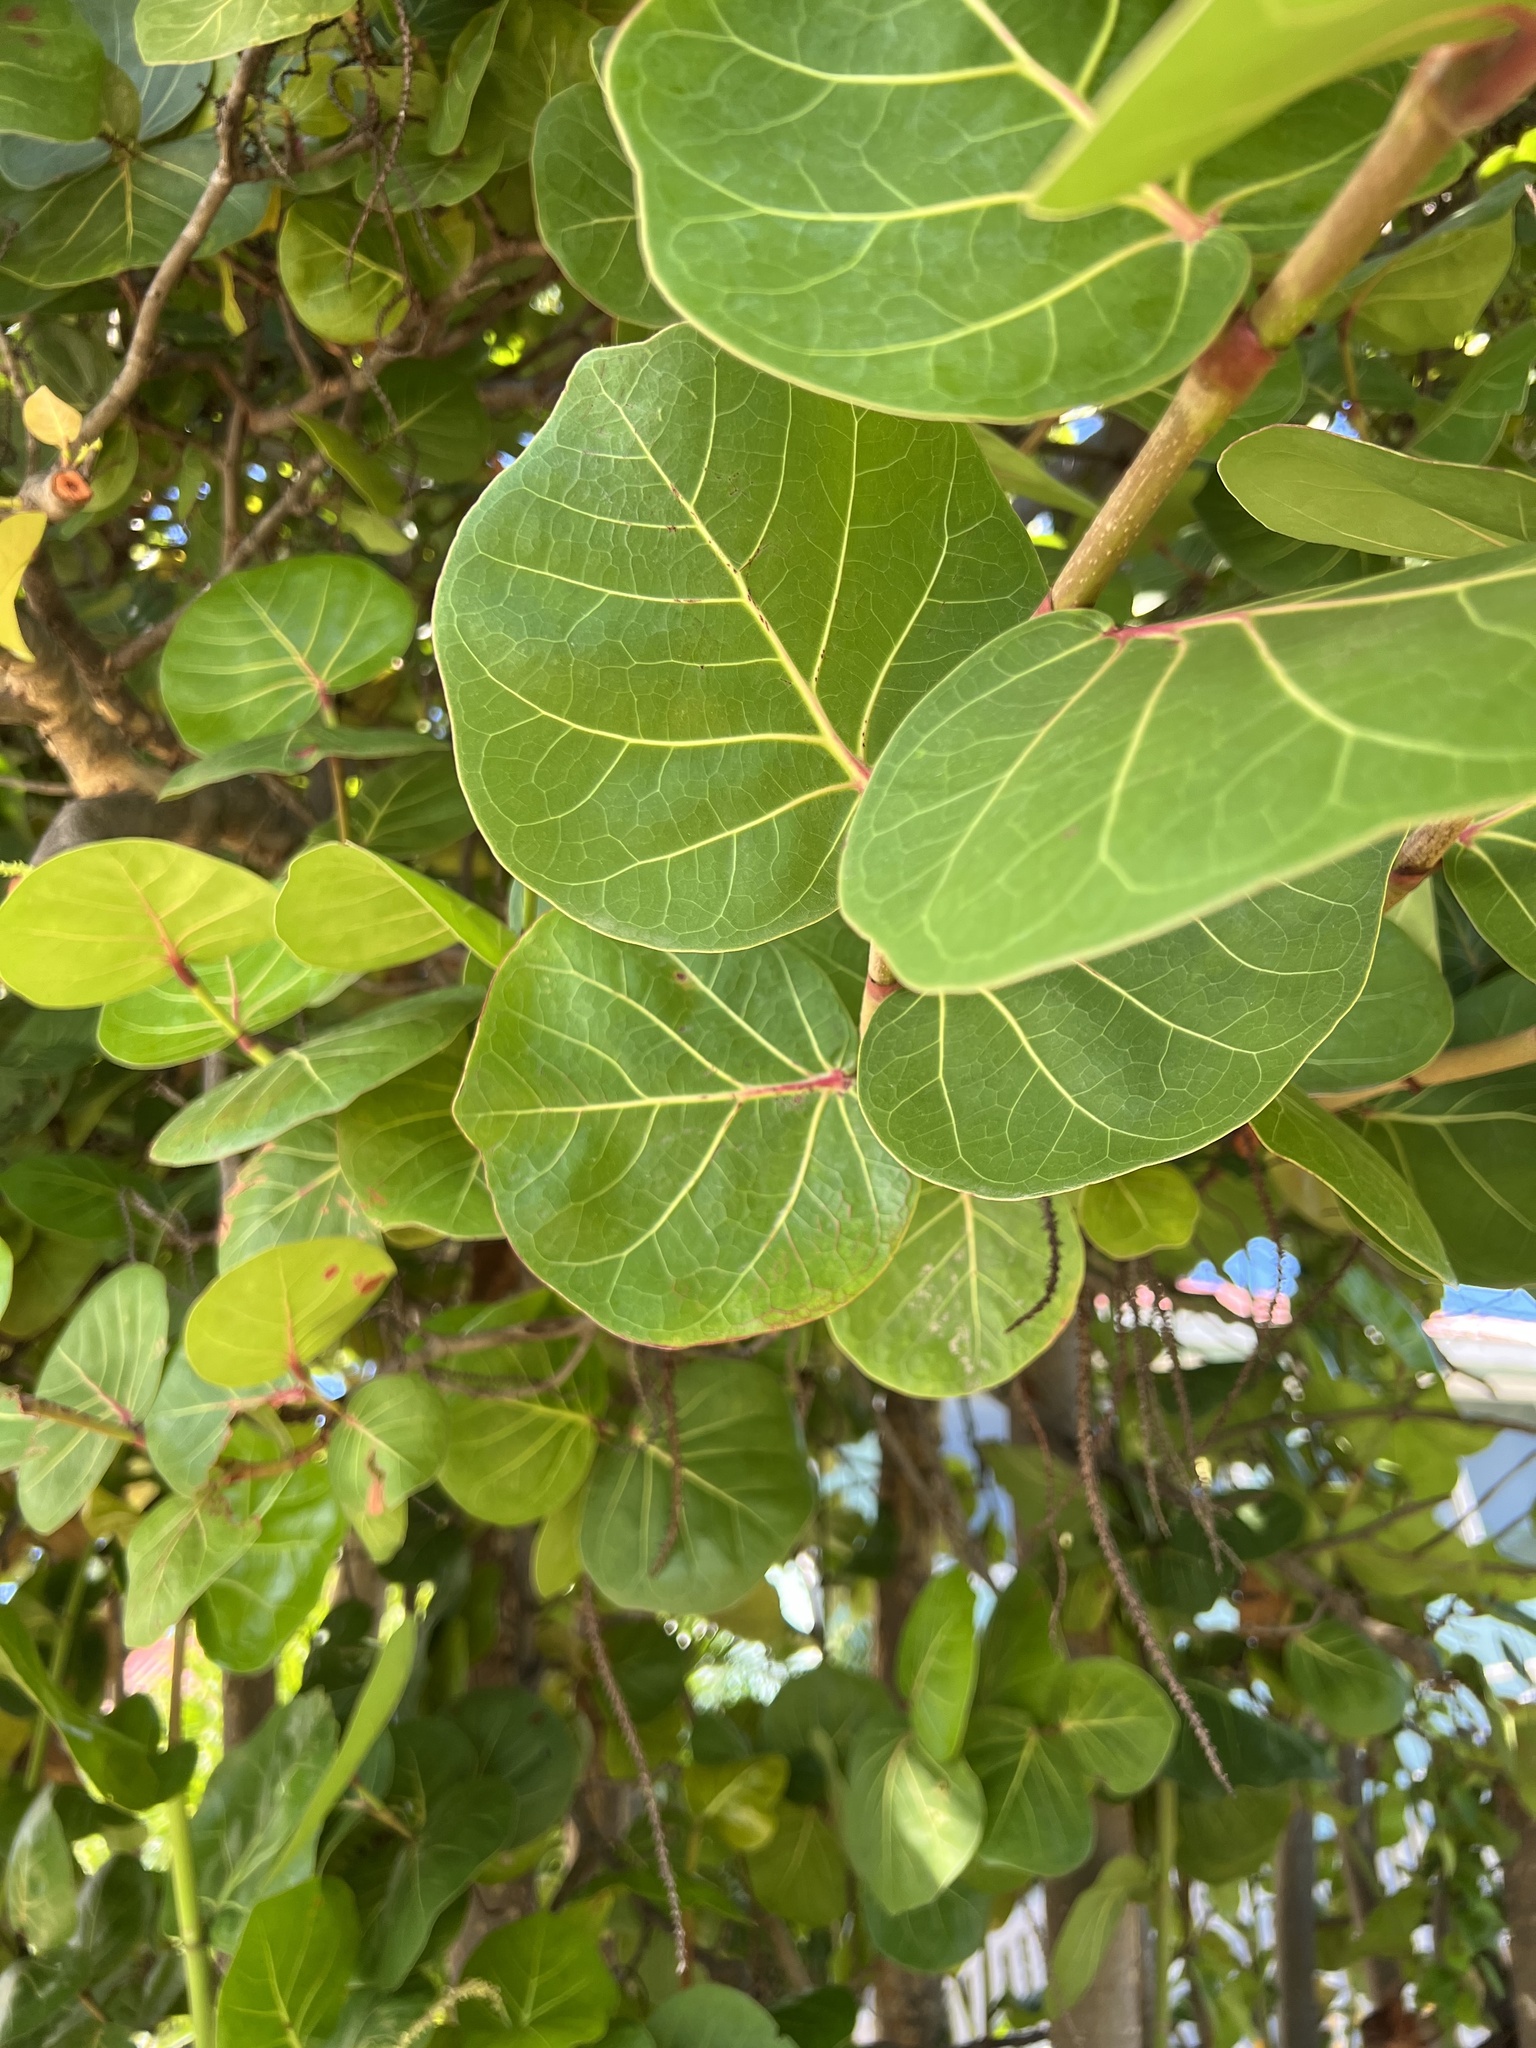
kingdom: Plantae
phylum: Tracheophyta
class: Magnoliopsida
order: Caryophyllales
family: Polygonaceae
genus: Coccoloba
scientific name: Coccoloba uvifera
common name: Seagrape
